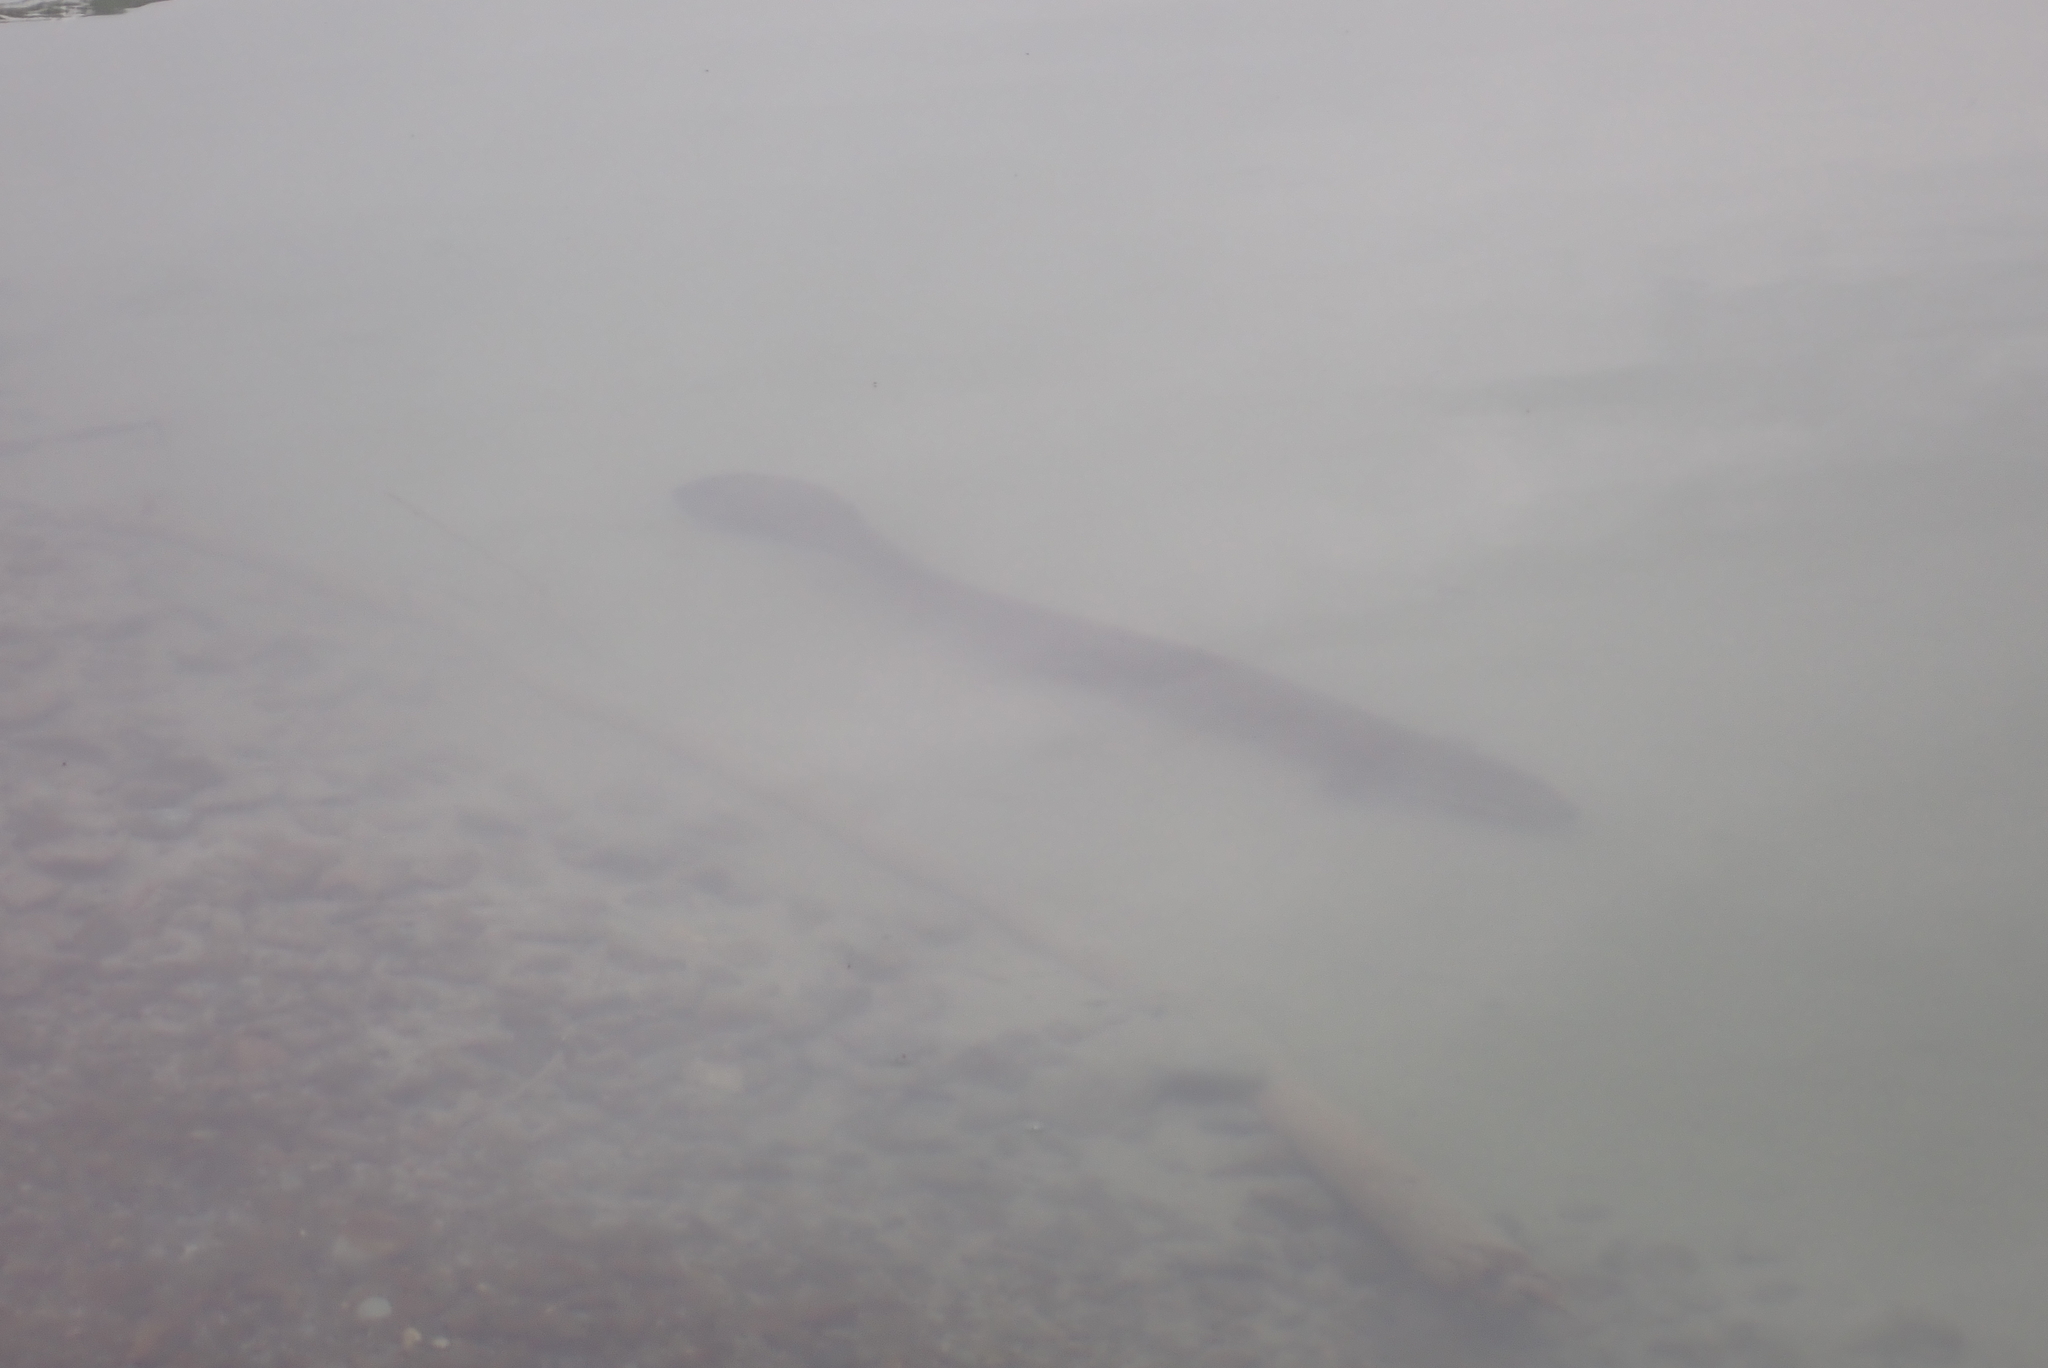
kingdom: Animalia
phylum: Chordata
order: Anguilliformes
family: Anguillidae
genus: Anguilla
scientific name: Anguilla dieffenbachii
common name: New zealand longfin eel
